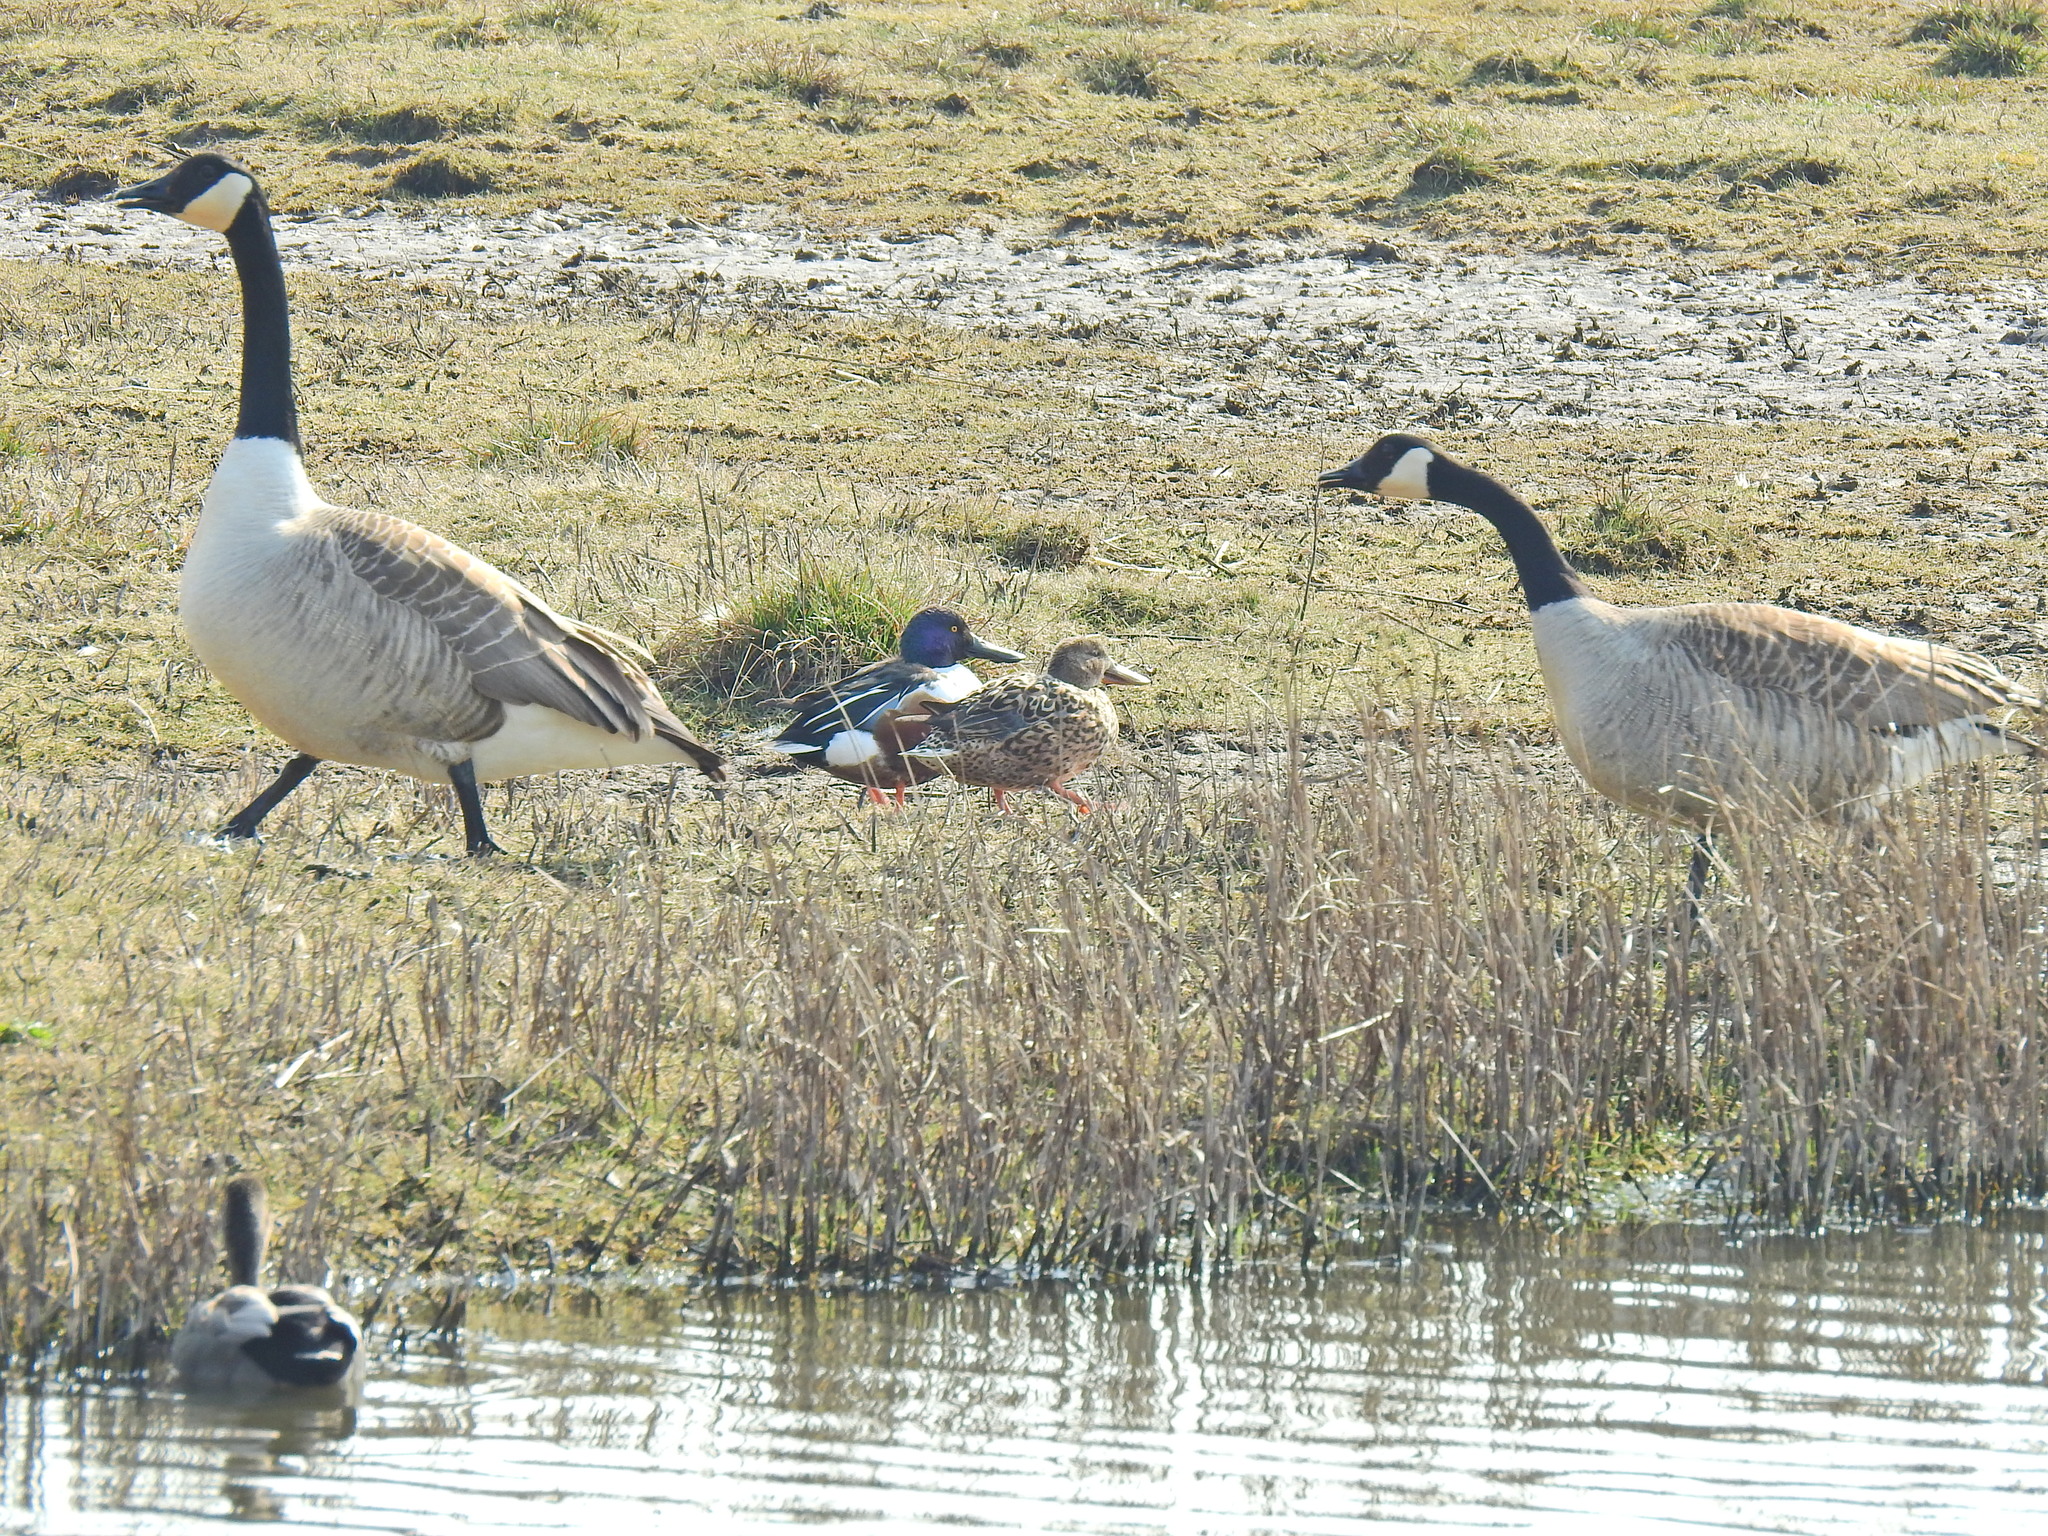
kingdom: Animalia
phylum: Chordata
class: Aves
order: Anseriformes
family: Anatidae
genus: Branta
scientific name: Branta canadensis
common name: Canada goose
